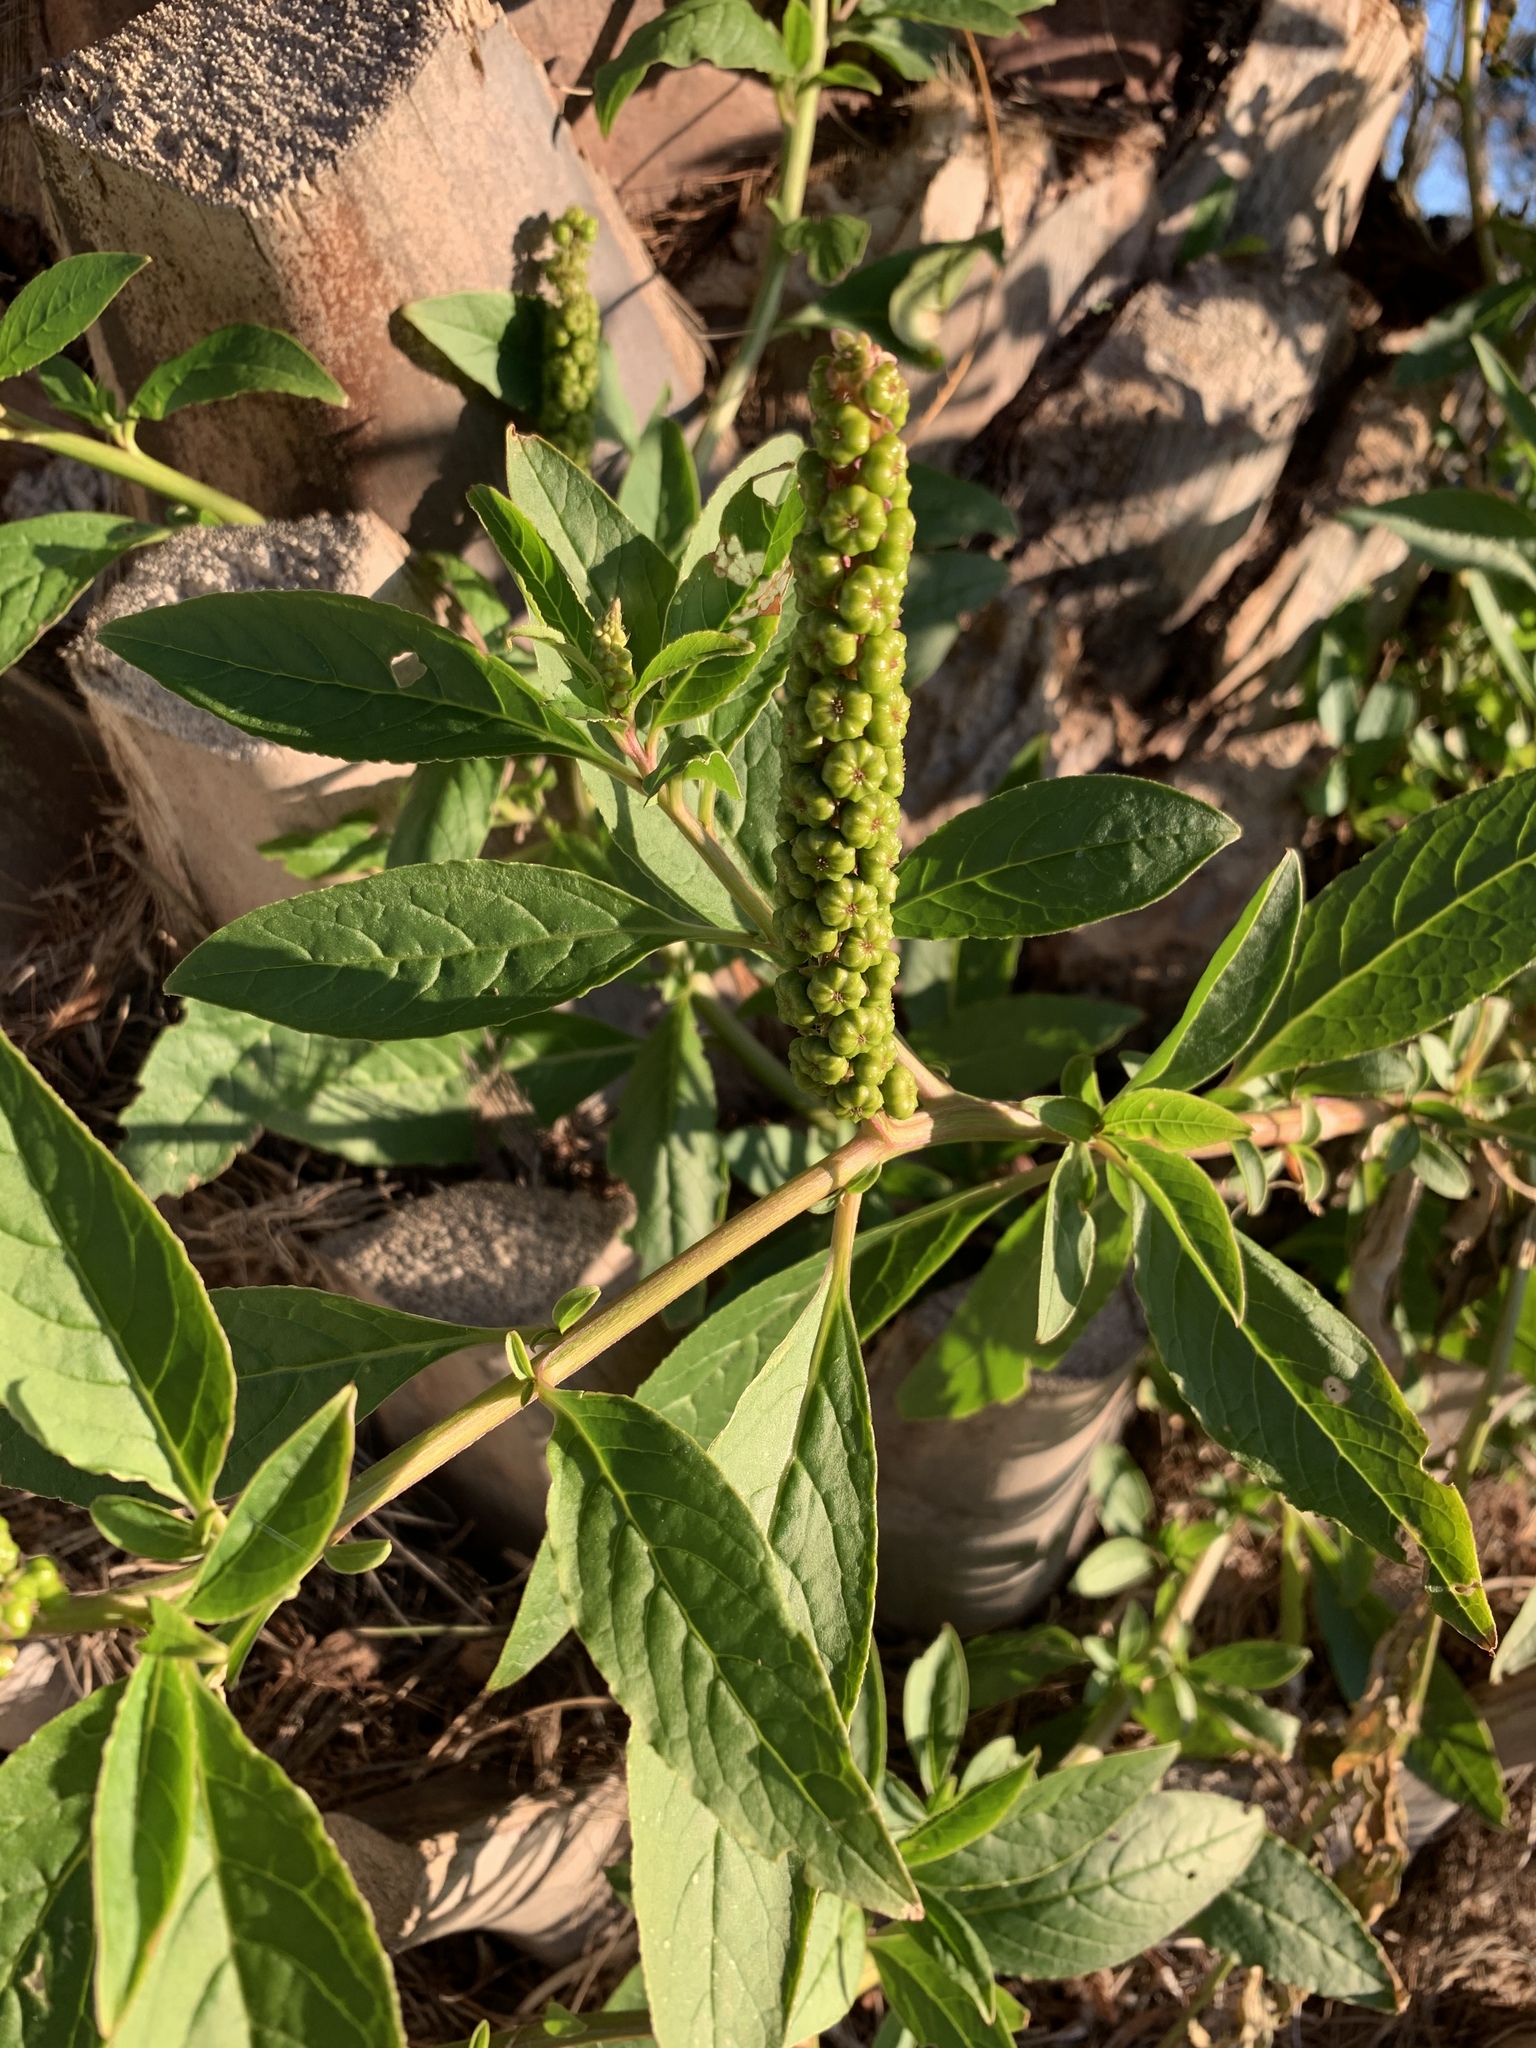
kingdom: Plantae
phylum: Tracheophyta
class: Magnoliopsida
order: Caryophyllales
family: Phytolaccaceae
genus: Phytolacca
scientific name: Phytolacca icosandra
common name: Button pokeweed
